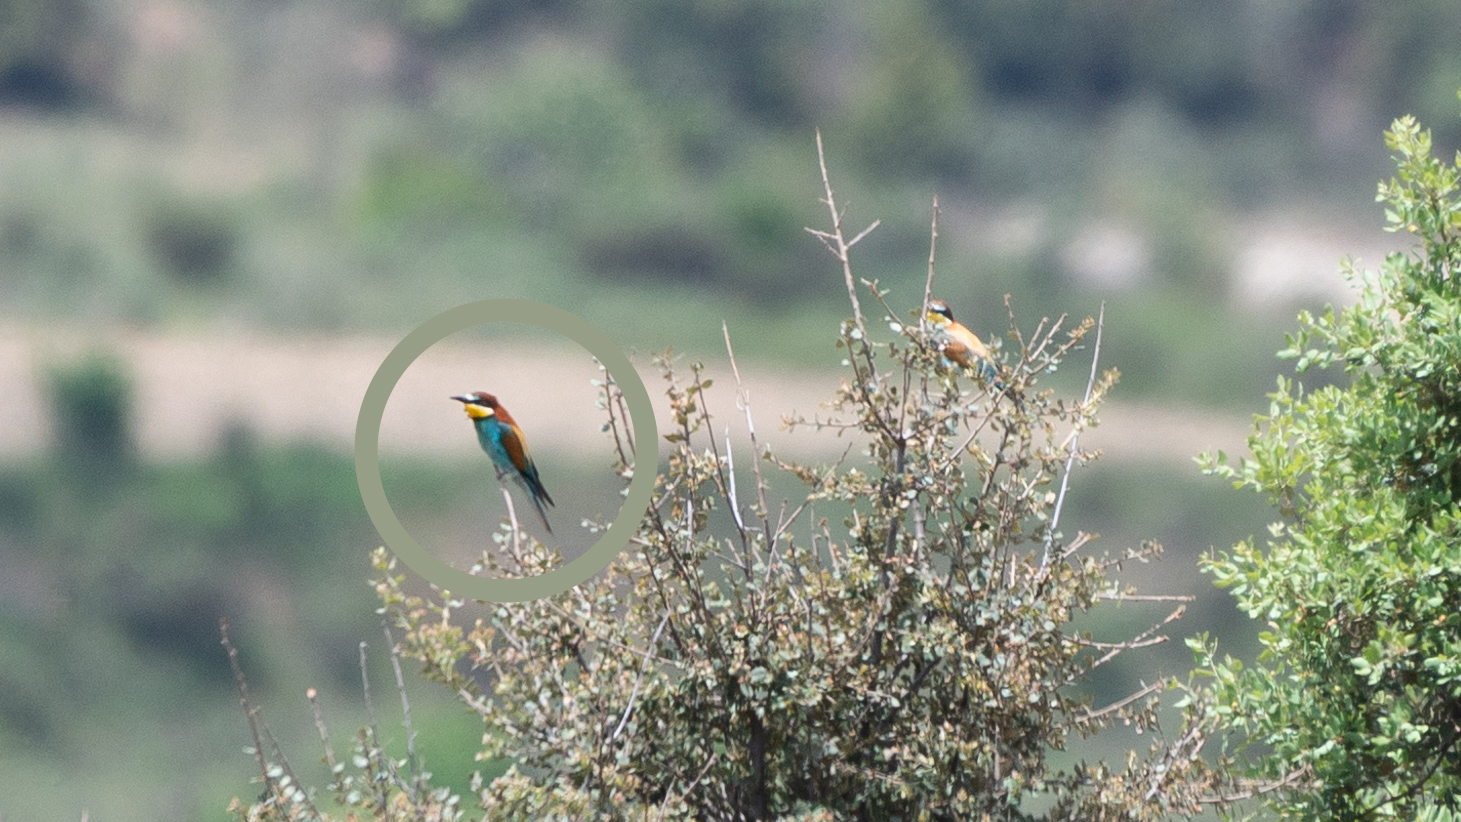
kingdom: Animalia
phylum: Chordata
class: Aves
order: Coraciiformes
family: Meropidae
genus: Merops
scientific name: Merops apiaster
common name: European bee-eater
